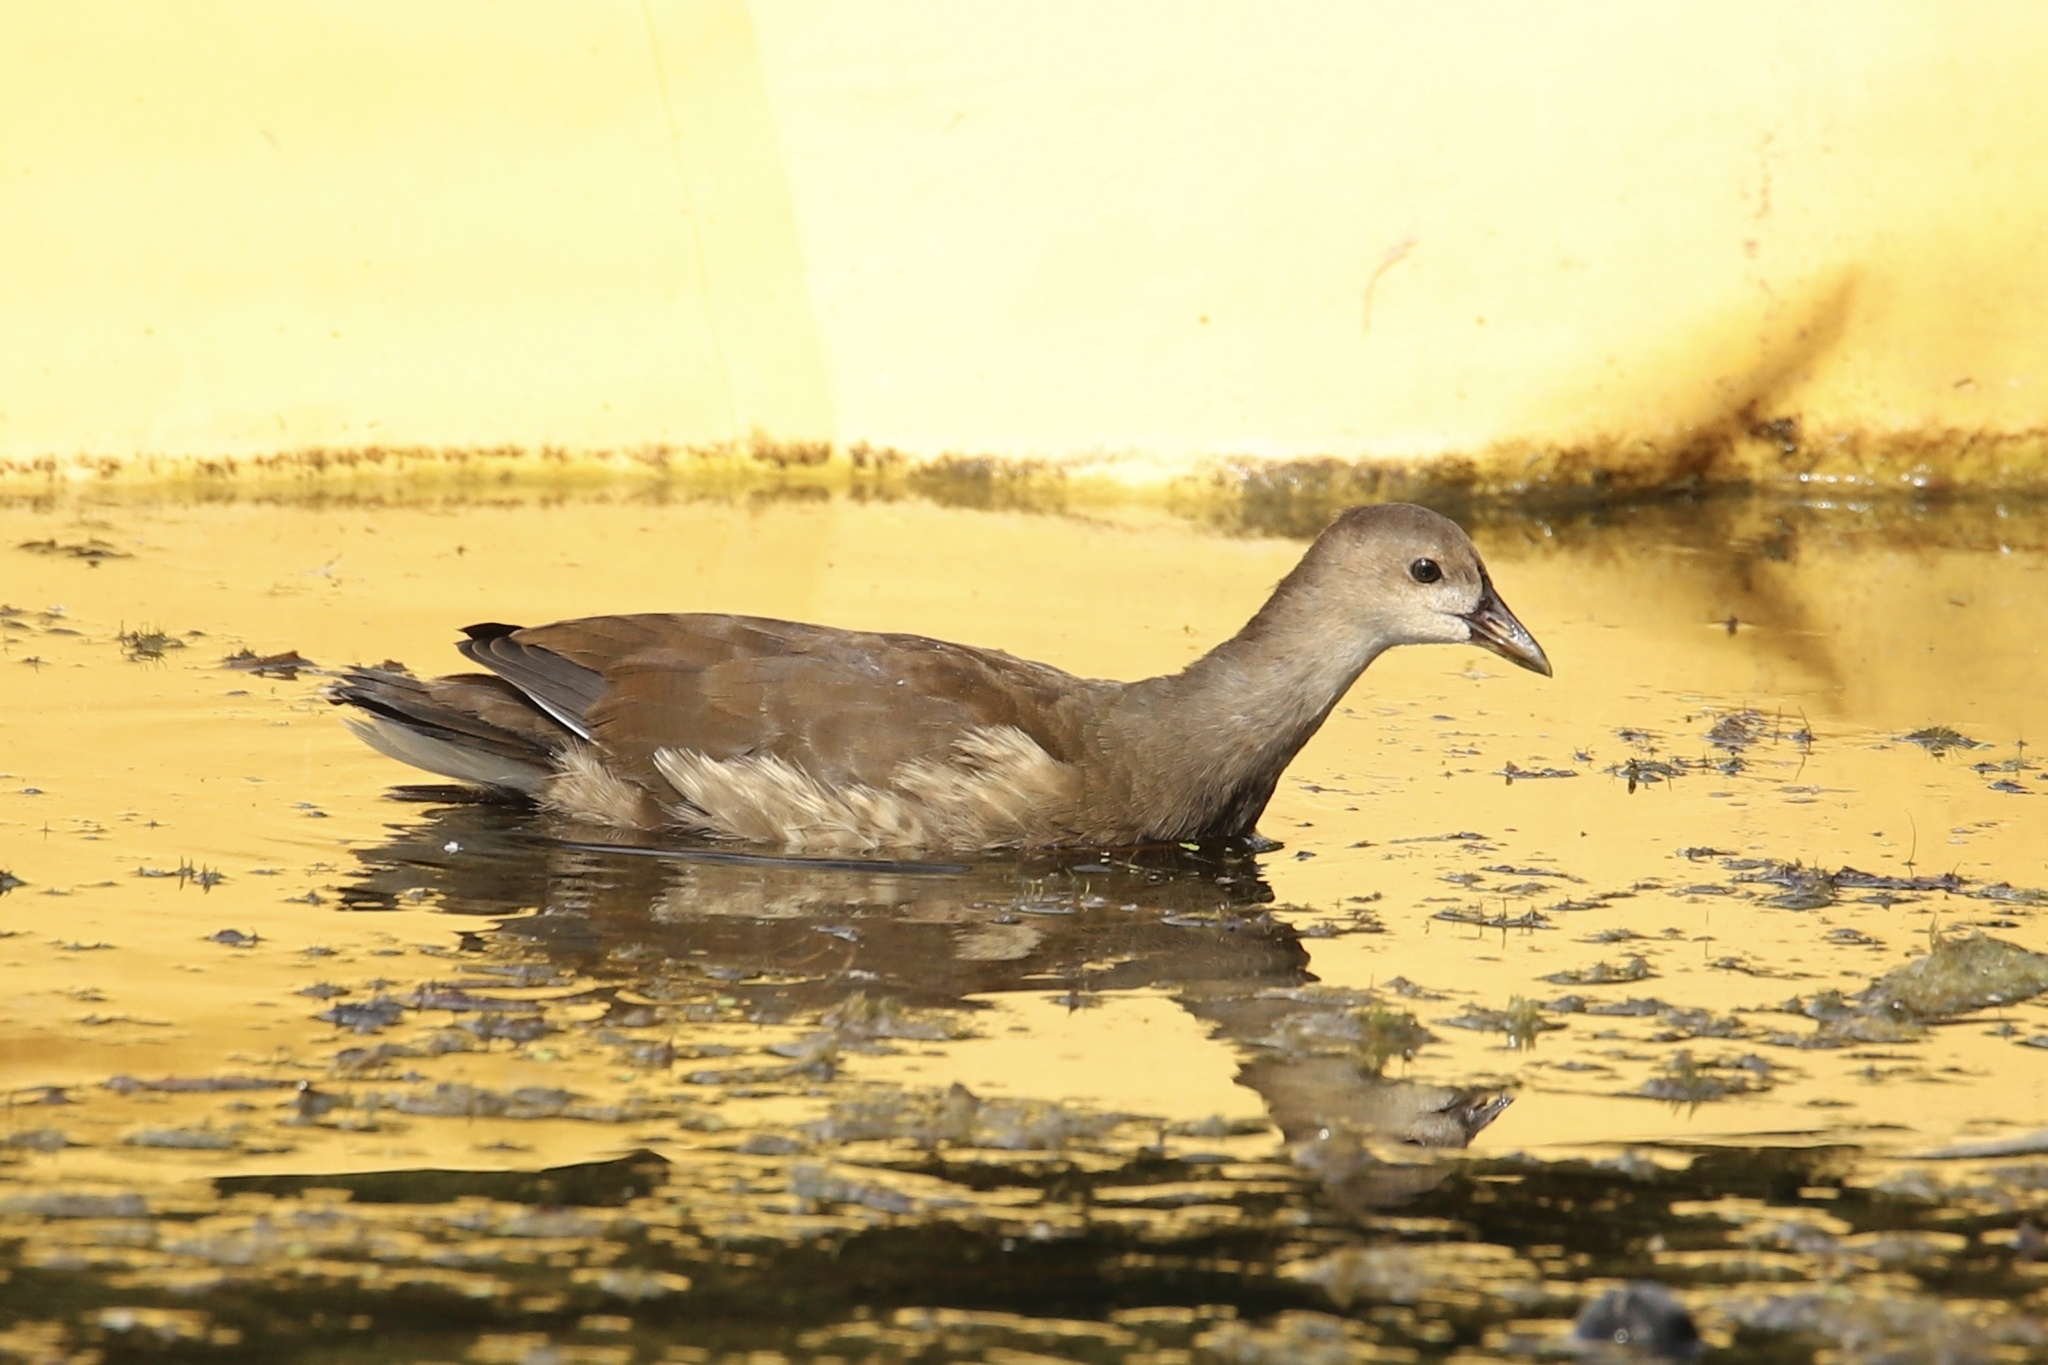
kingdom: Animalia
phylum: Chordata
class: Aves
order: Gruiformes
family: Rallidae
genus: Gallinula
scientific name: Gallinula chloropus
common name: Common moorhen
